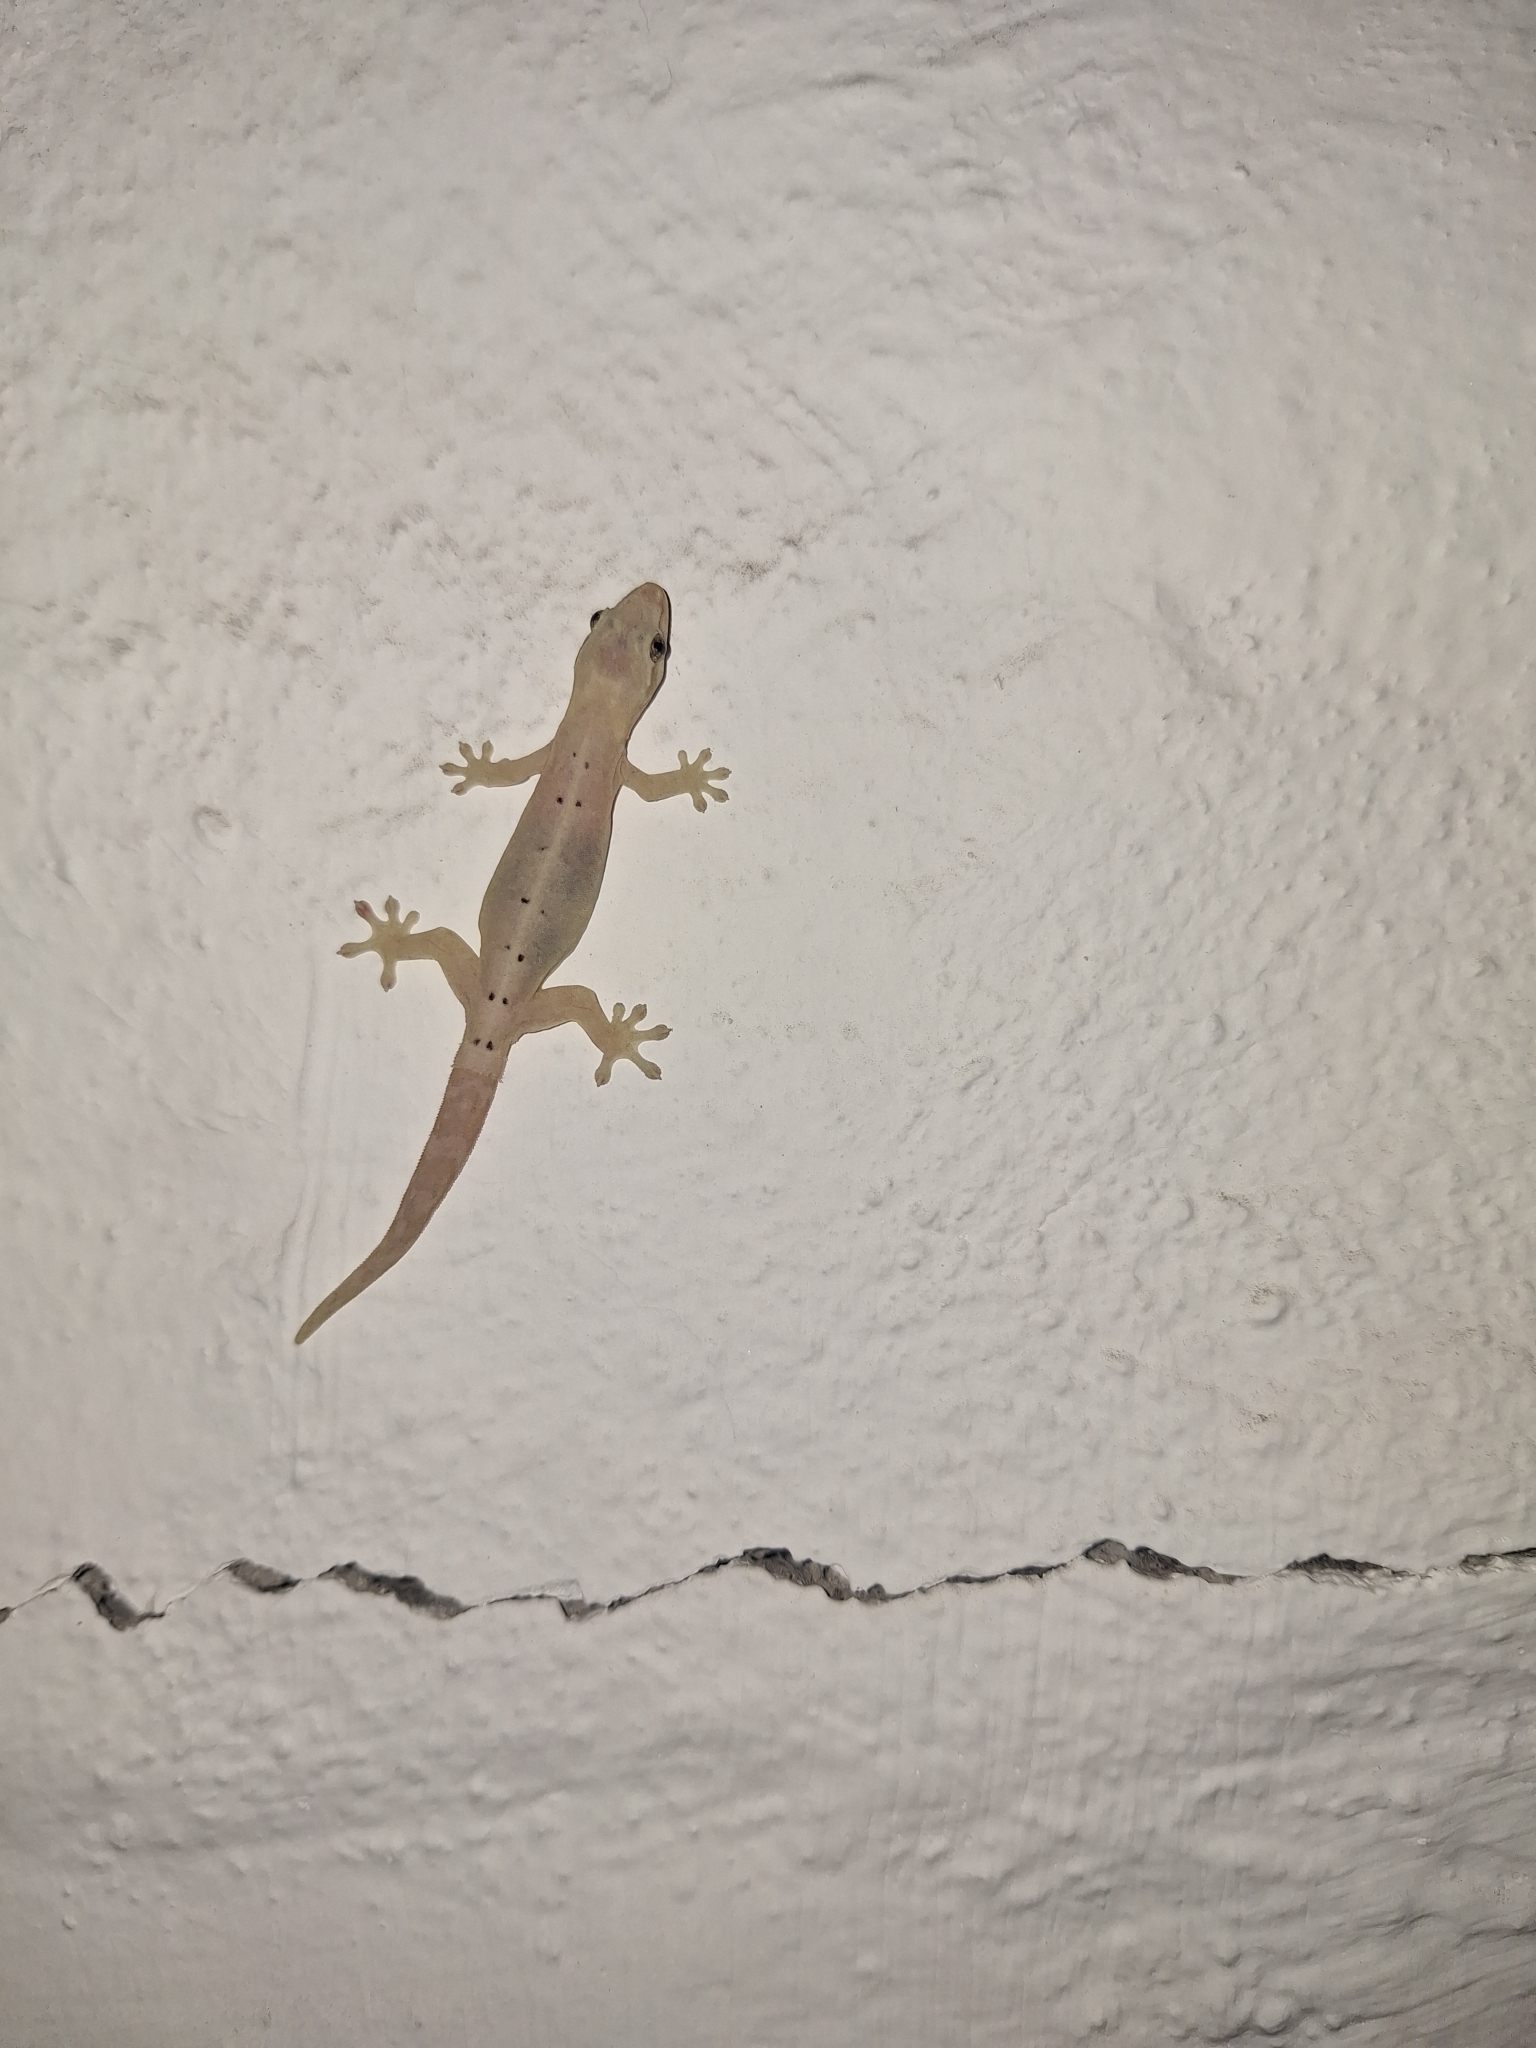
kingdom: Animalia
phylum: Chordata
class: Squamata
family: Gekkonidae
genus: Lepidodactylus
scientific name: Lepidodactylus lugubris
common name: Mourning gecko
